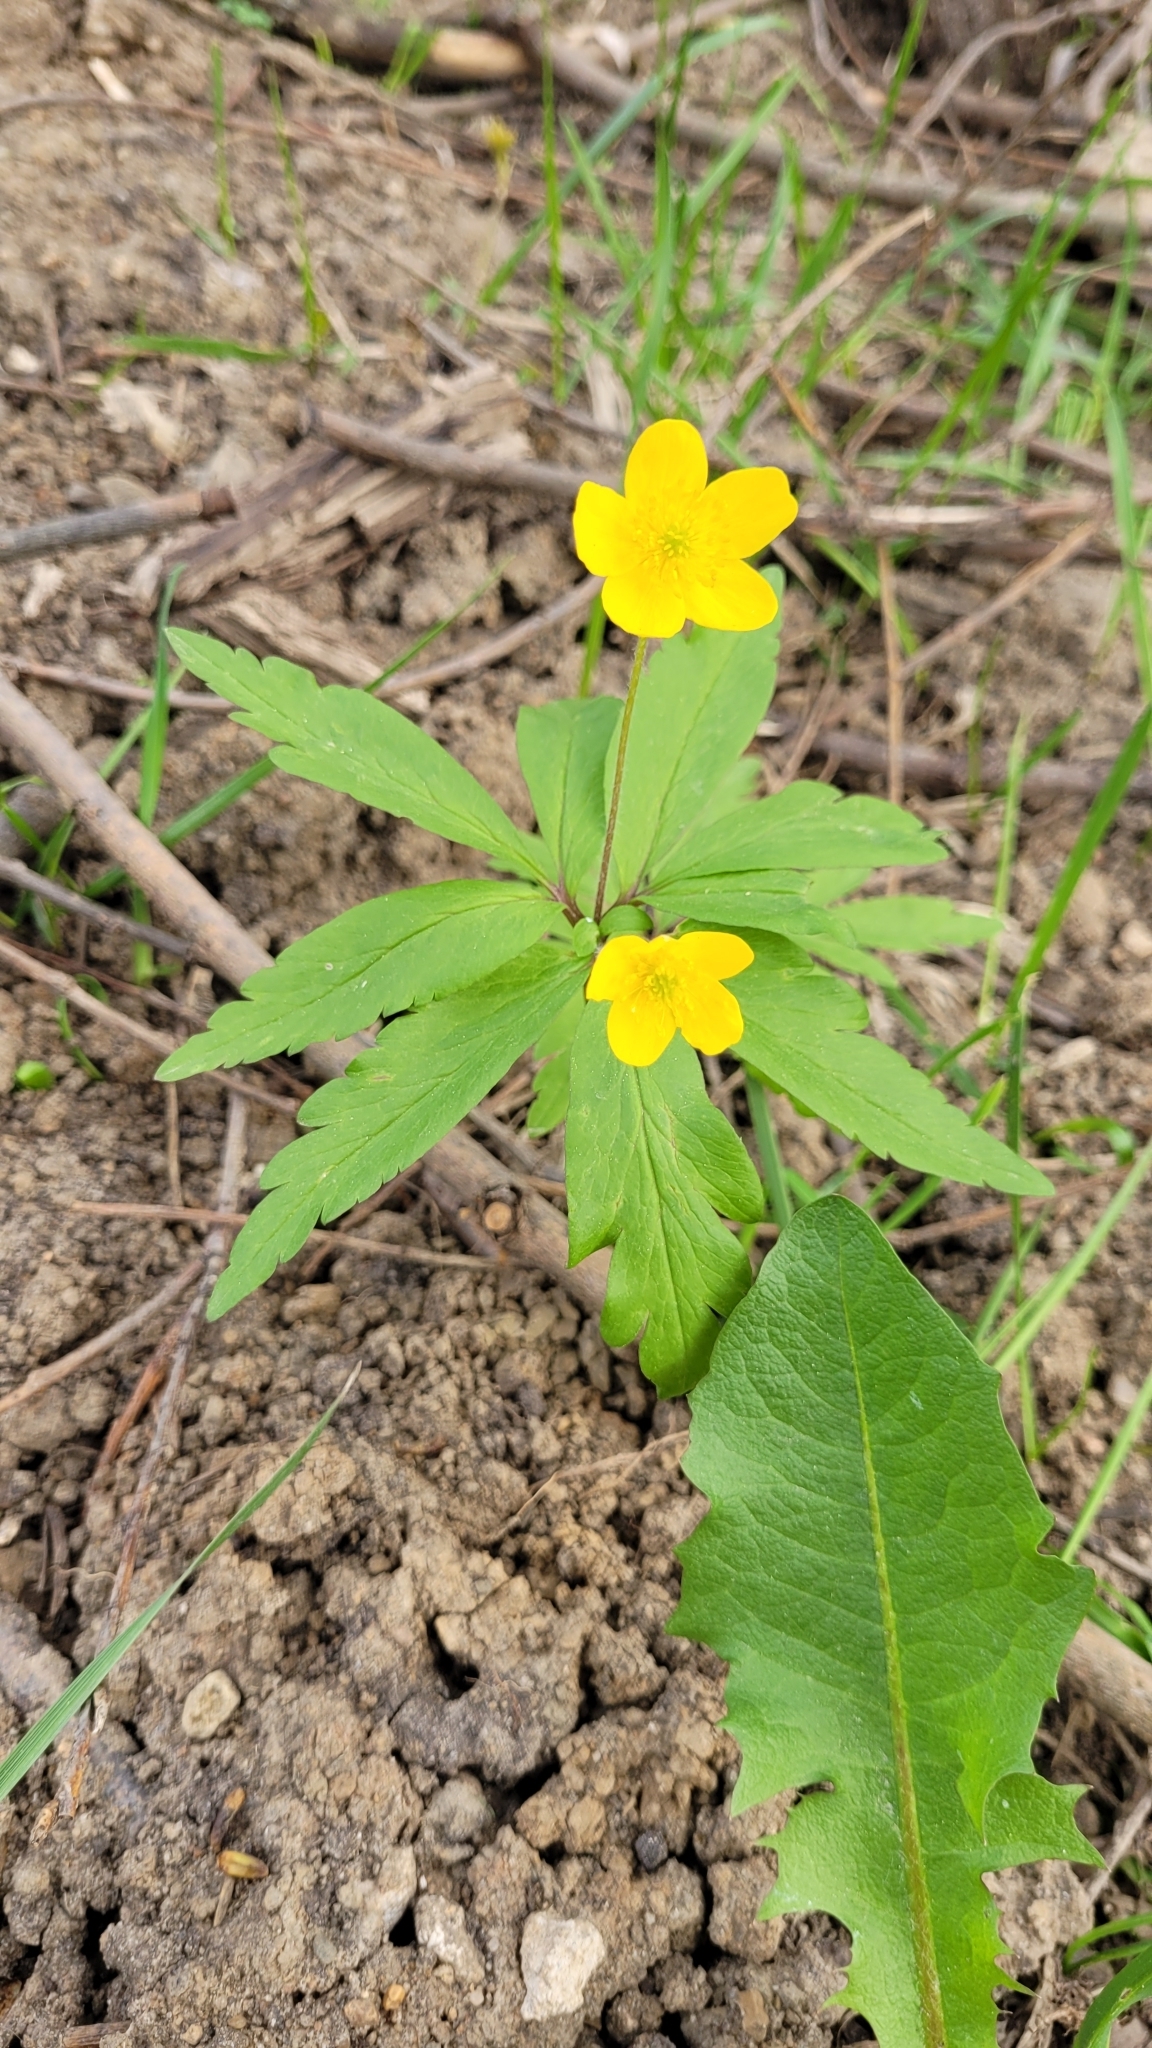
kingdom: Plantae
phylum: Tracheophyta
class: Magnoliopsida
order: Ranunculales
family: Ranunculaceae
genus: Anemone
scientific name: Anemone ranunculoides
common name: Yellow anemone
